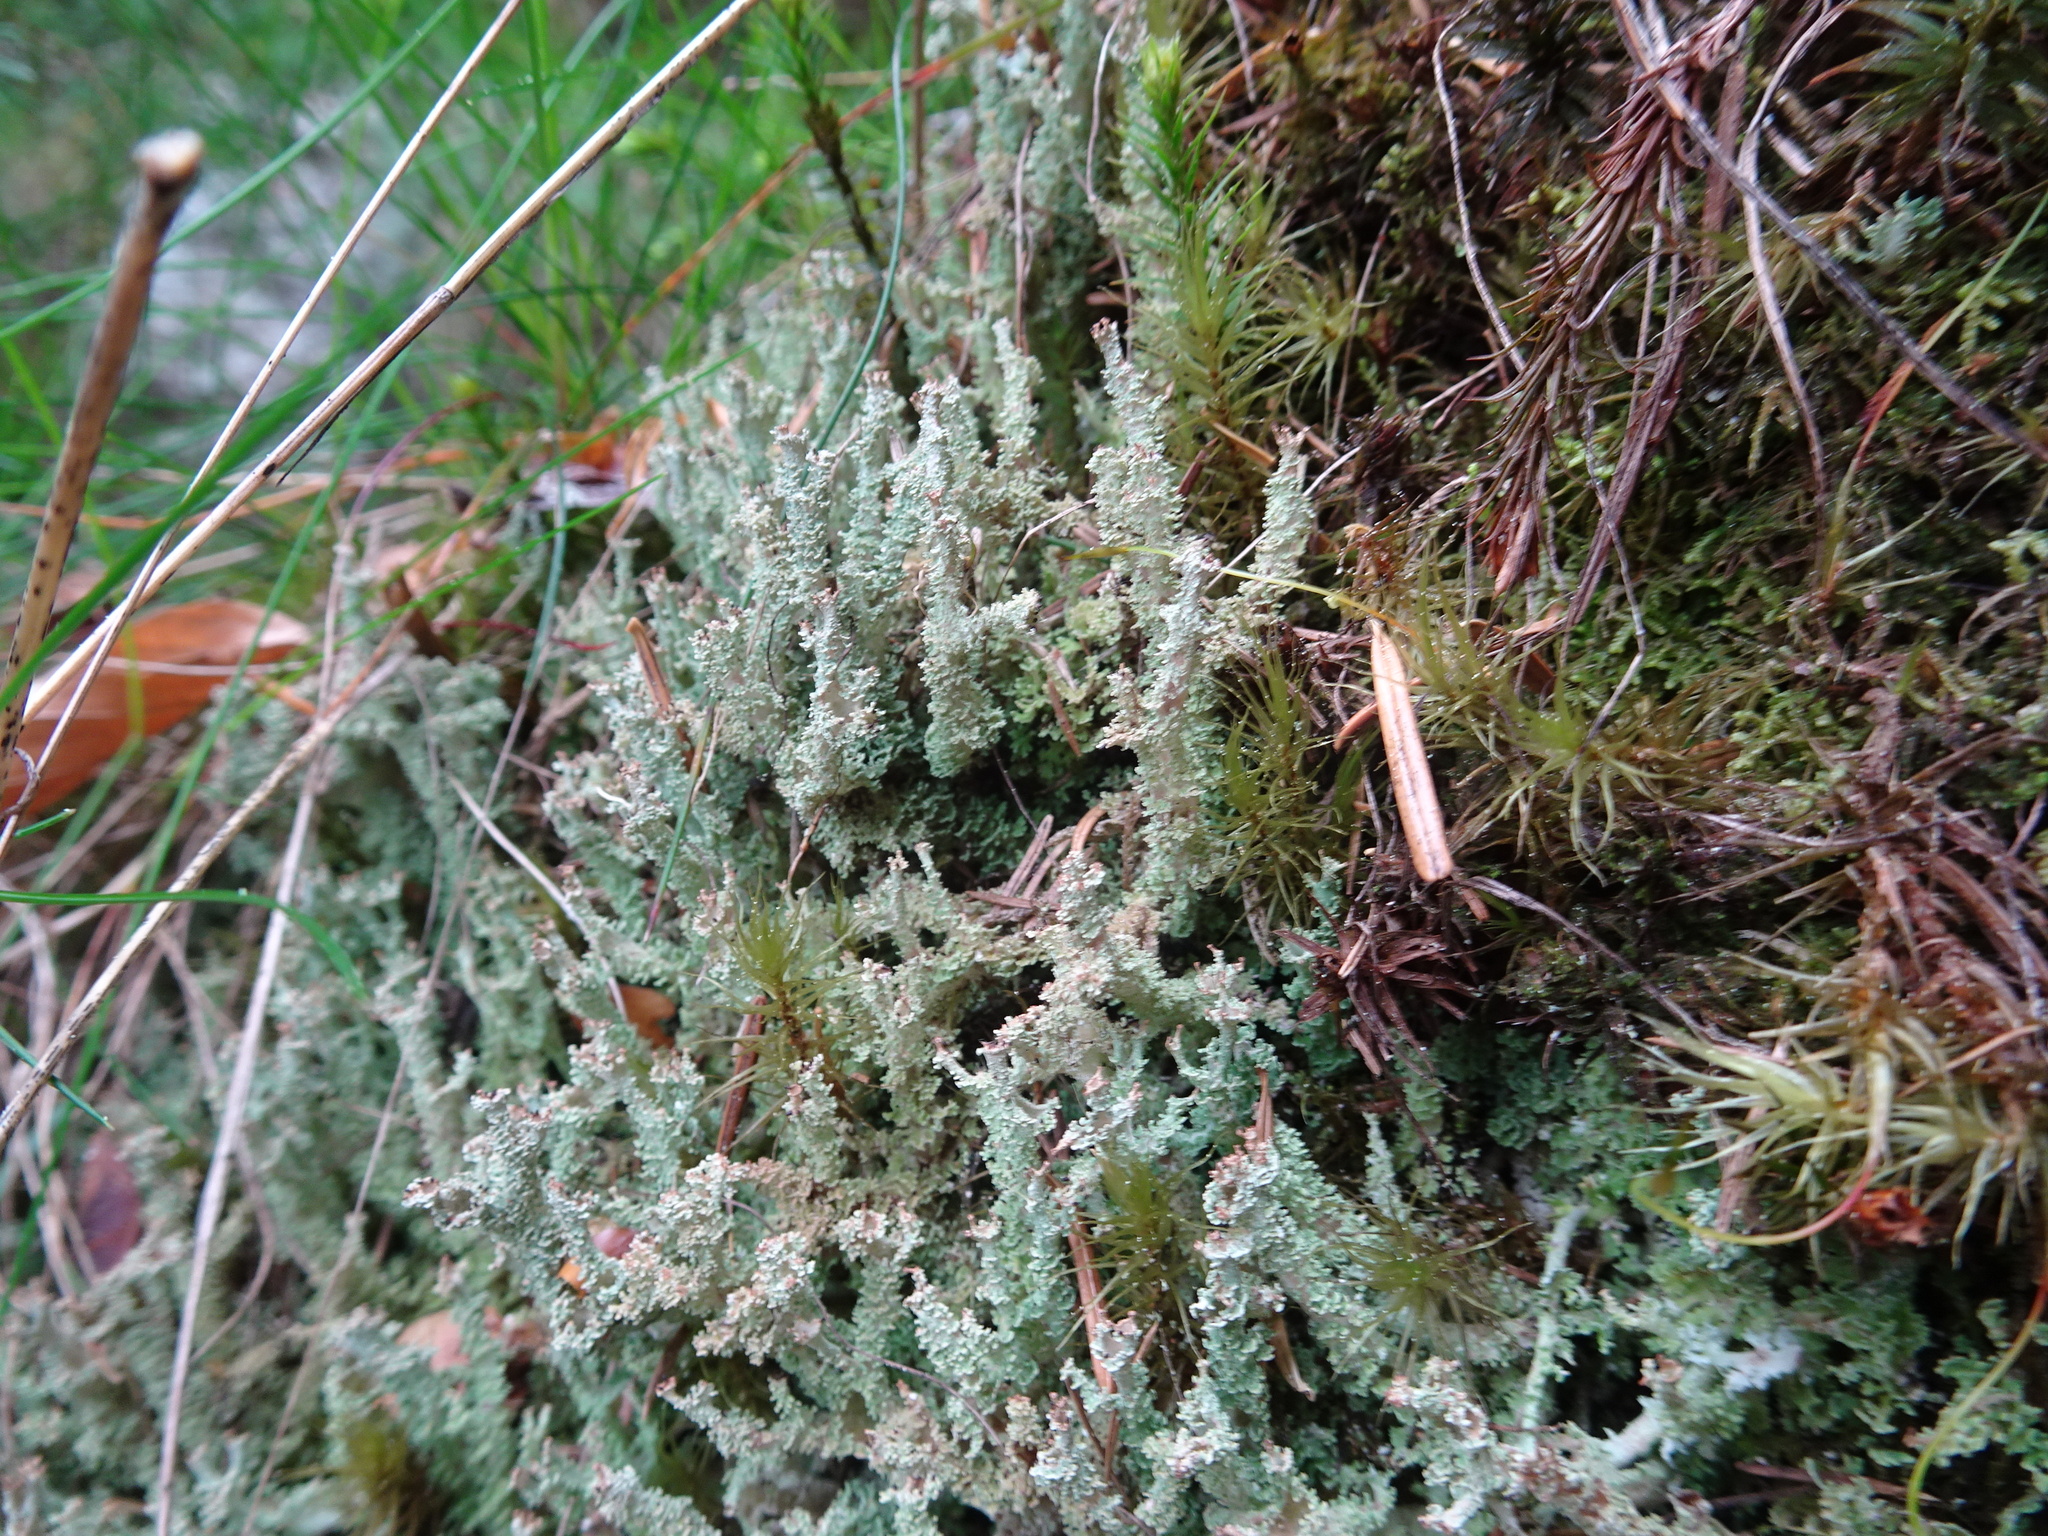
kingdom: Fungi
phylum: Ascomycota
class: Lecanoromycetes
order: Lecanorales
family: Cladoniaceae
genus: Cladonia
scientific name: Cladonia squamosa
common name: Dragon horn
